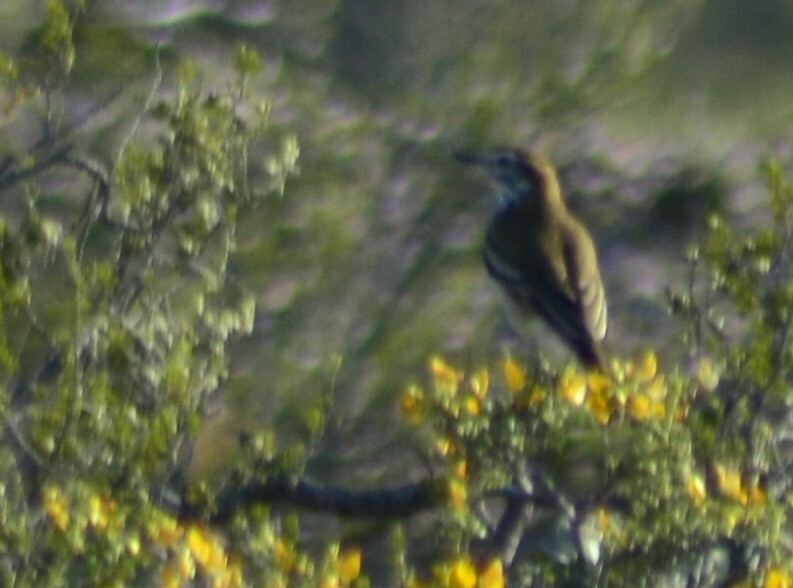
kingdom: Animalia
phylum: Chordata
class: Aves
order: Passeriformes
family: Tyrannidae
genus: Xolmis
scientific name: Xolmis rubetra
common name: Rusty-backed monjita
